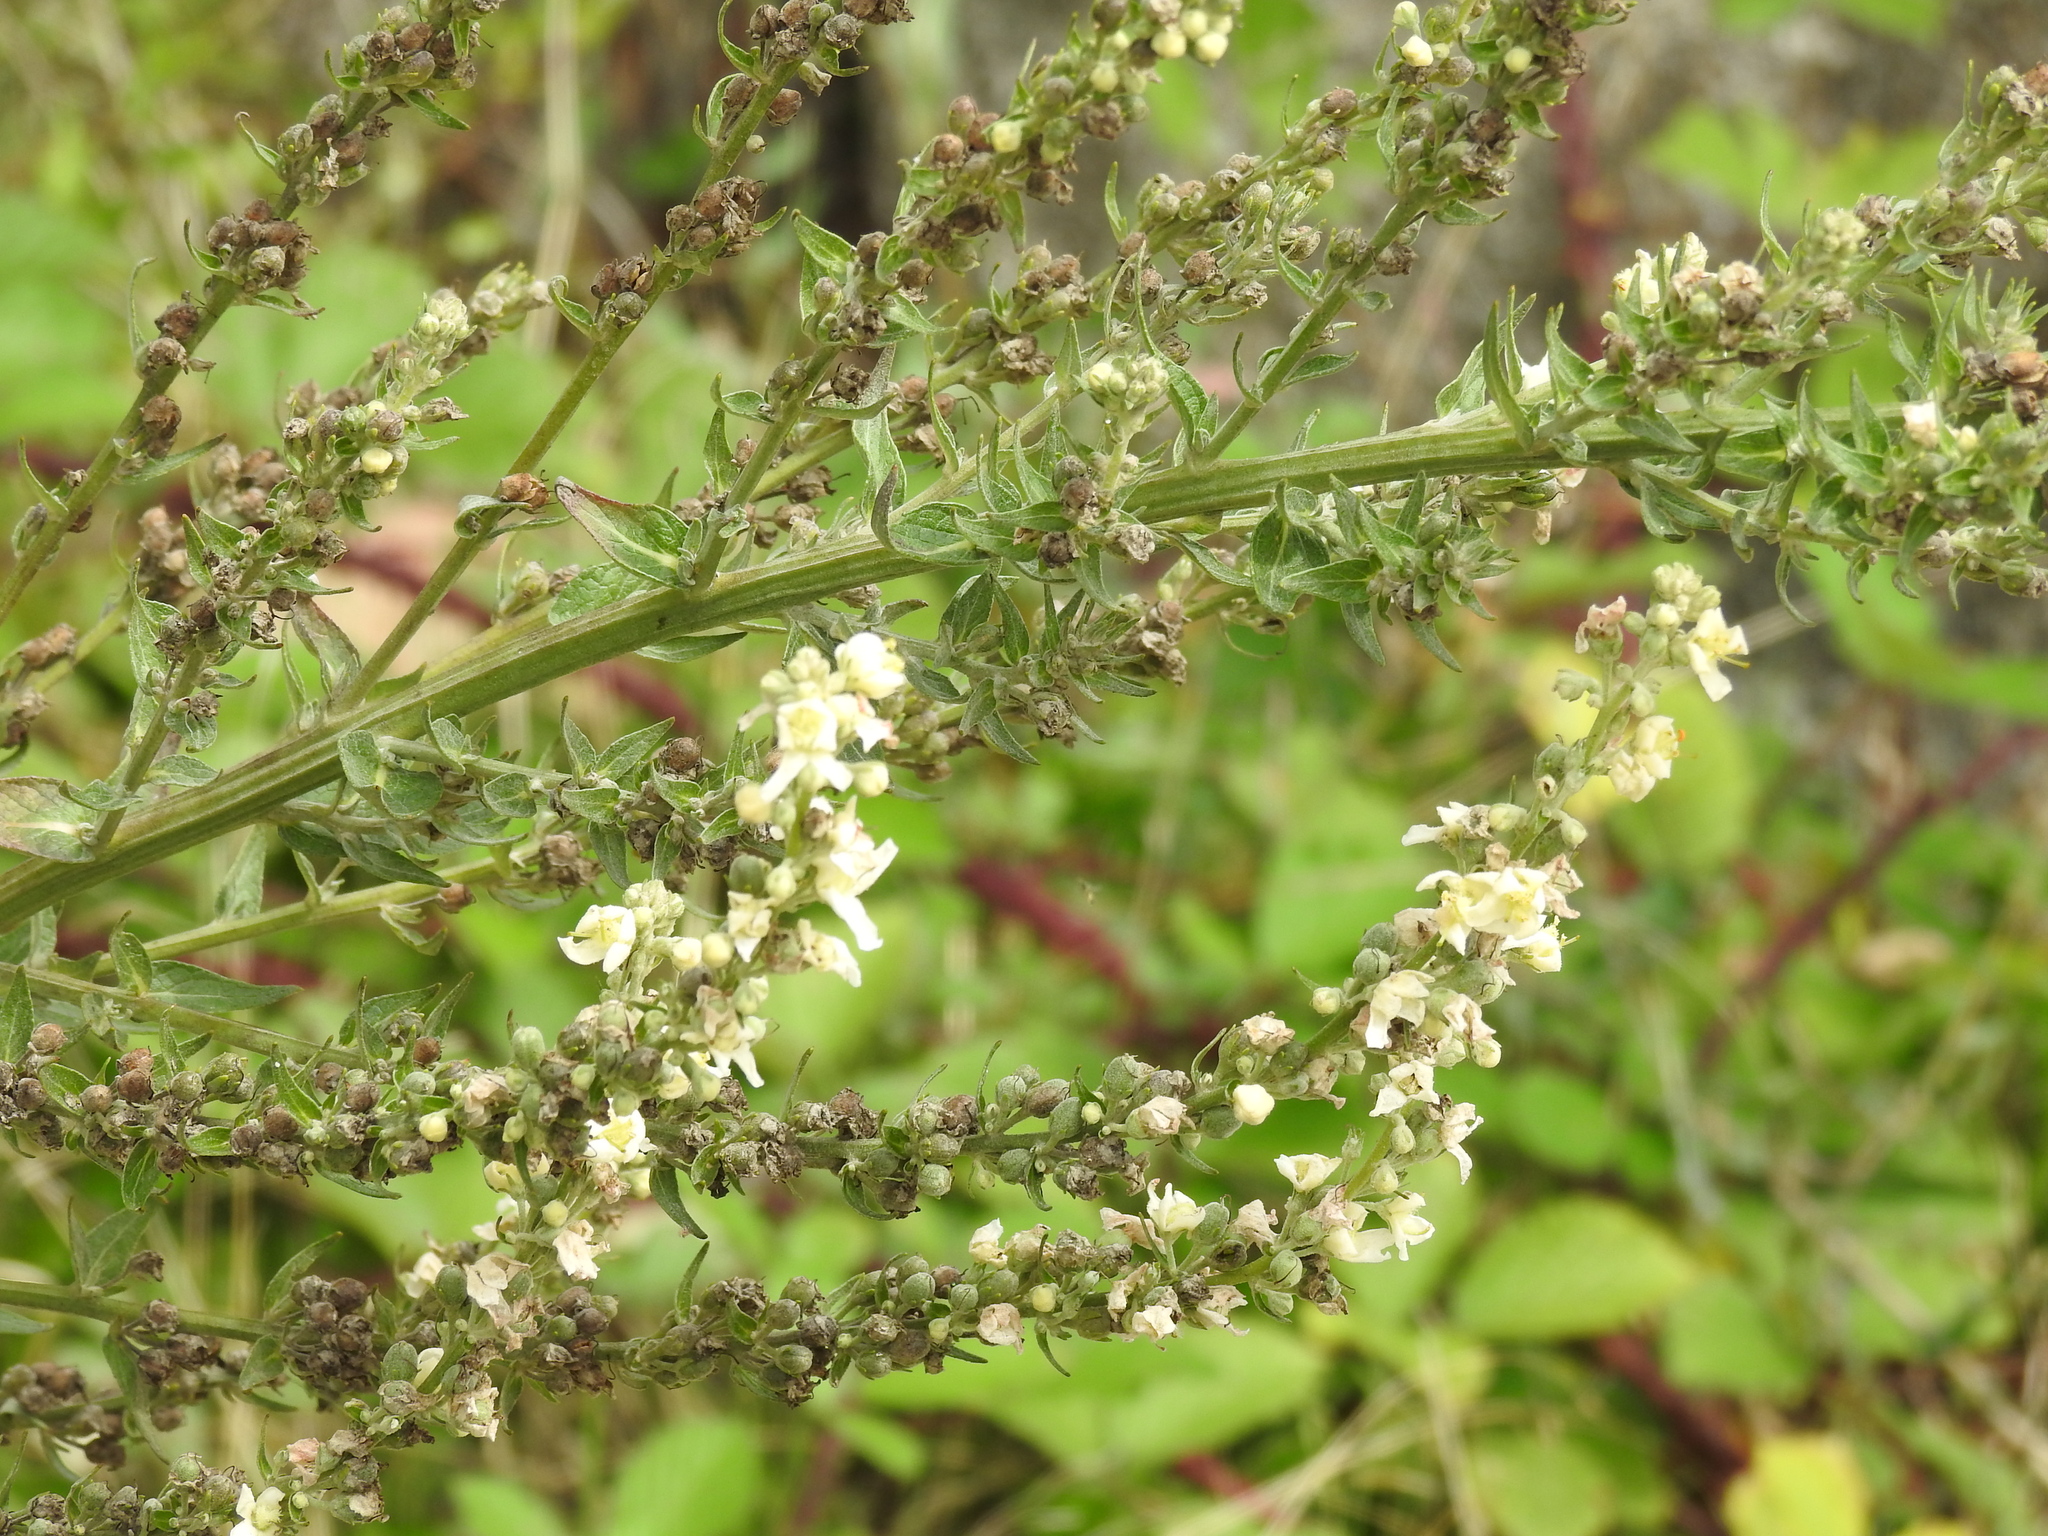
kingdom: Plantae
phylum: Tracheophyta
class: Magnoliopsida
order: Lamiales
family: Scrophulariaceae
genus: Verbascum
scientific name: Verbascum lychnitis
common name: White mullein
